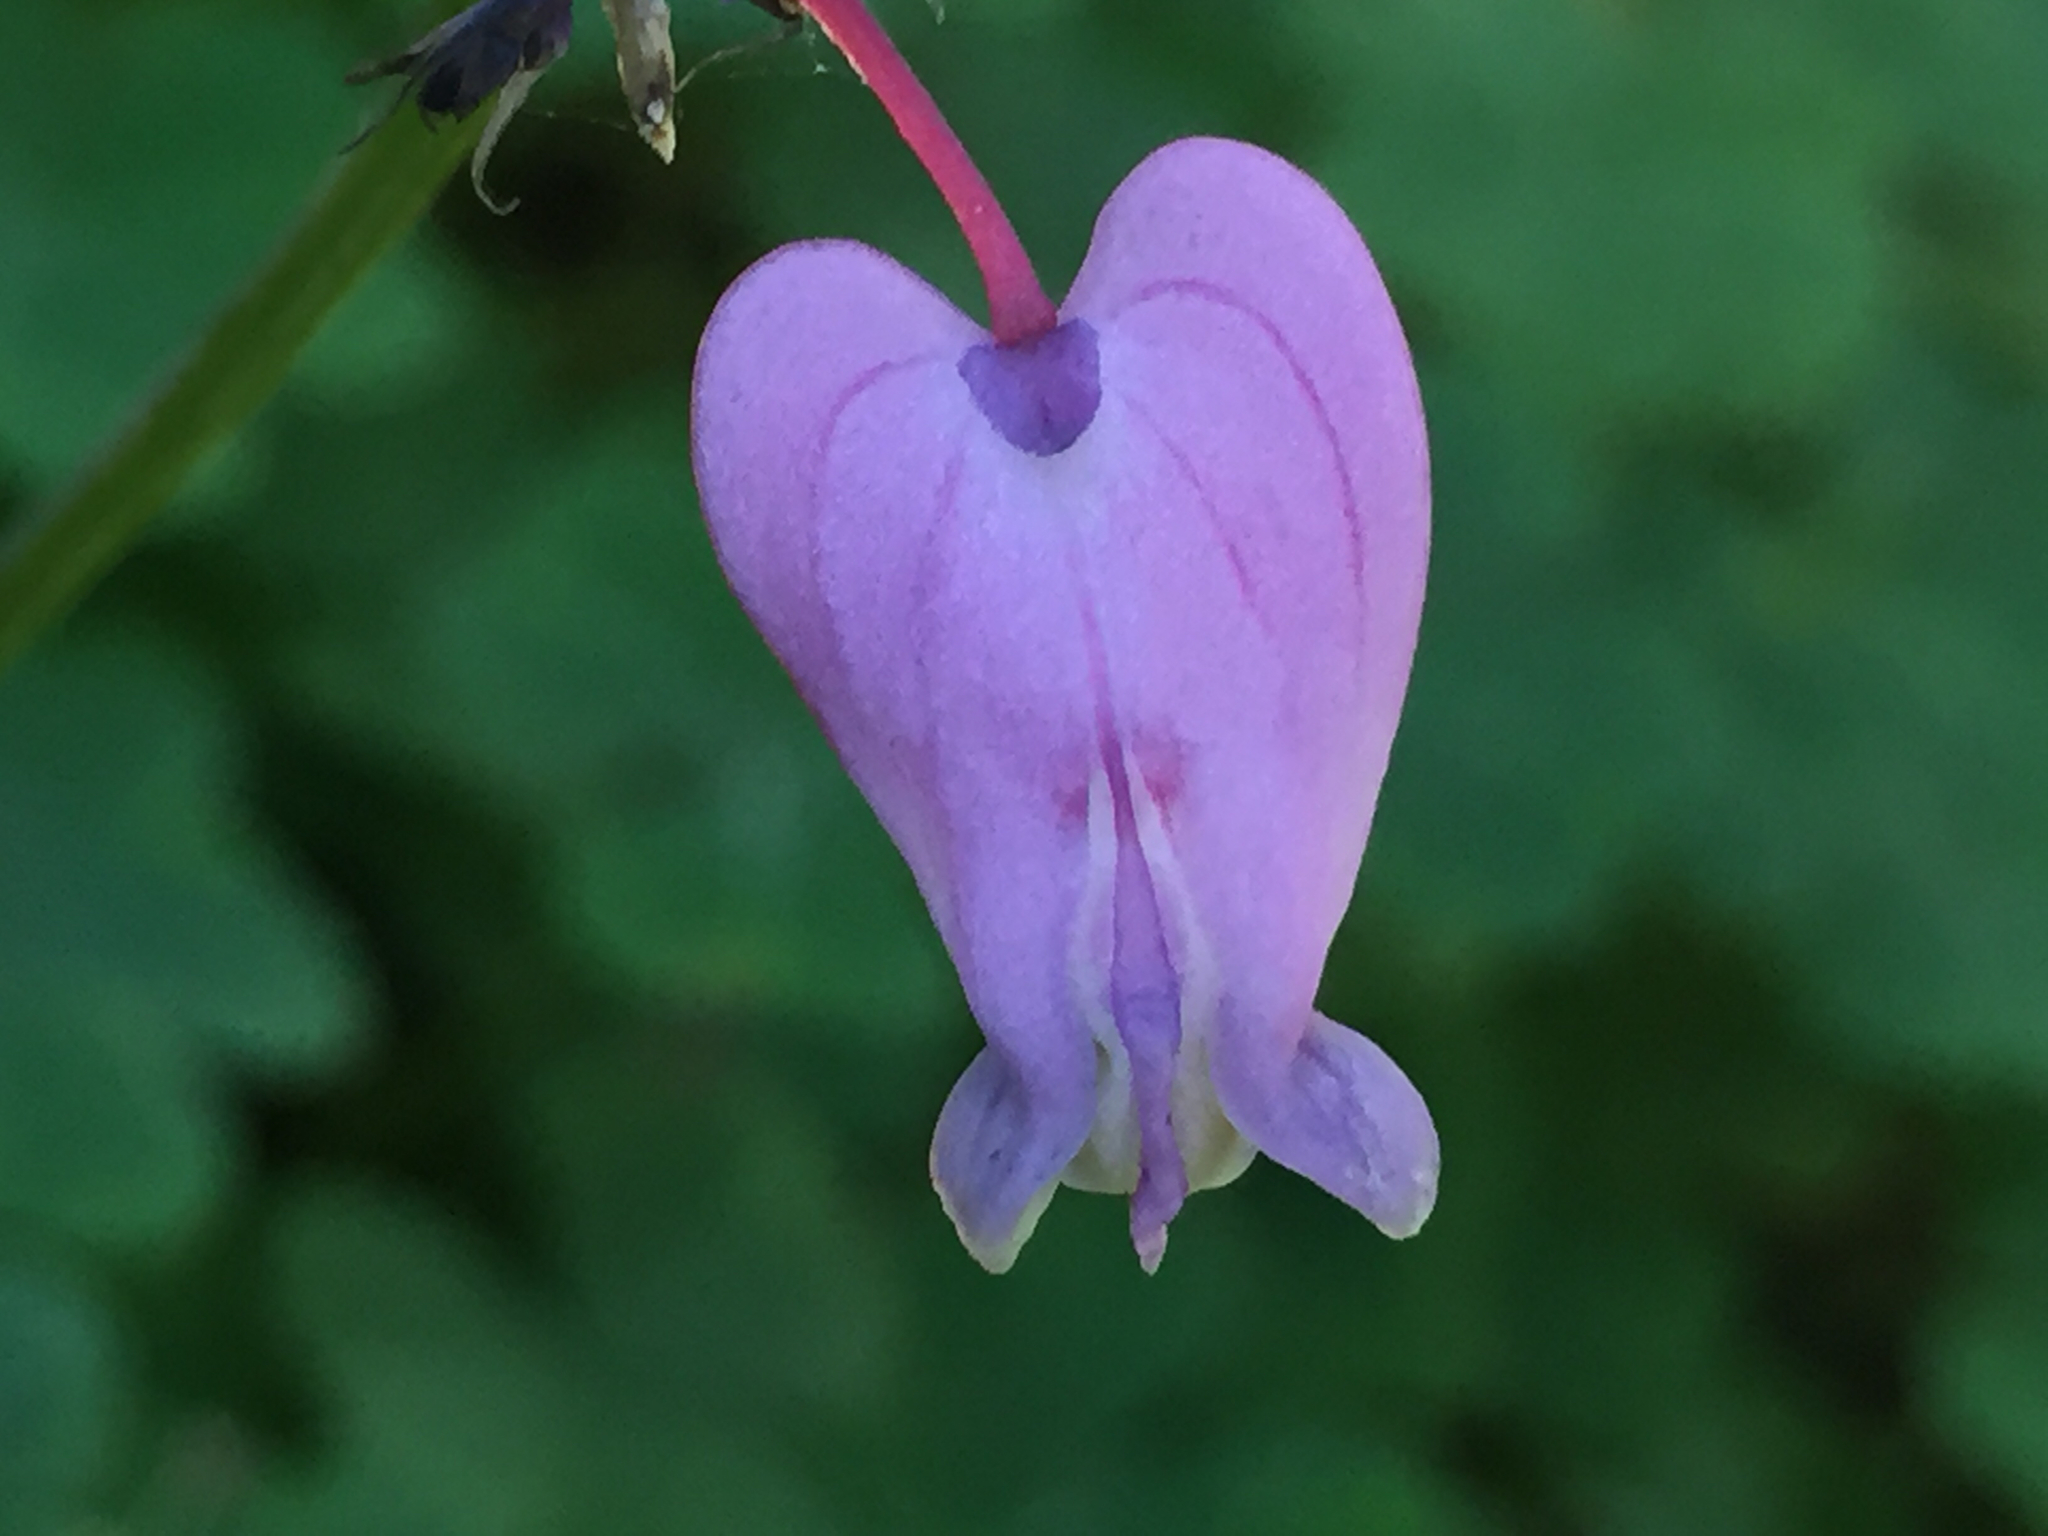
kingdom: Plantae
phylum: Tracheophyta
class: Magnoliopsida
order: Ranunculales
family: Papaveraceae
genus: Dicentra
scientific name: Dicentra formosa
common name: Bleeding-heart
